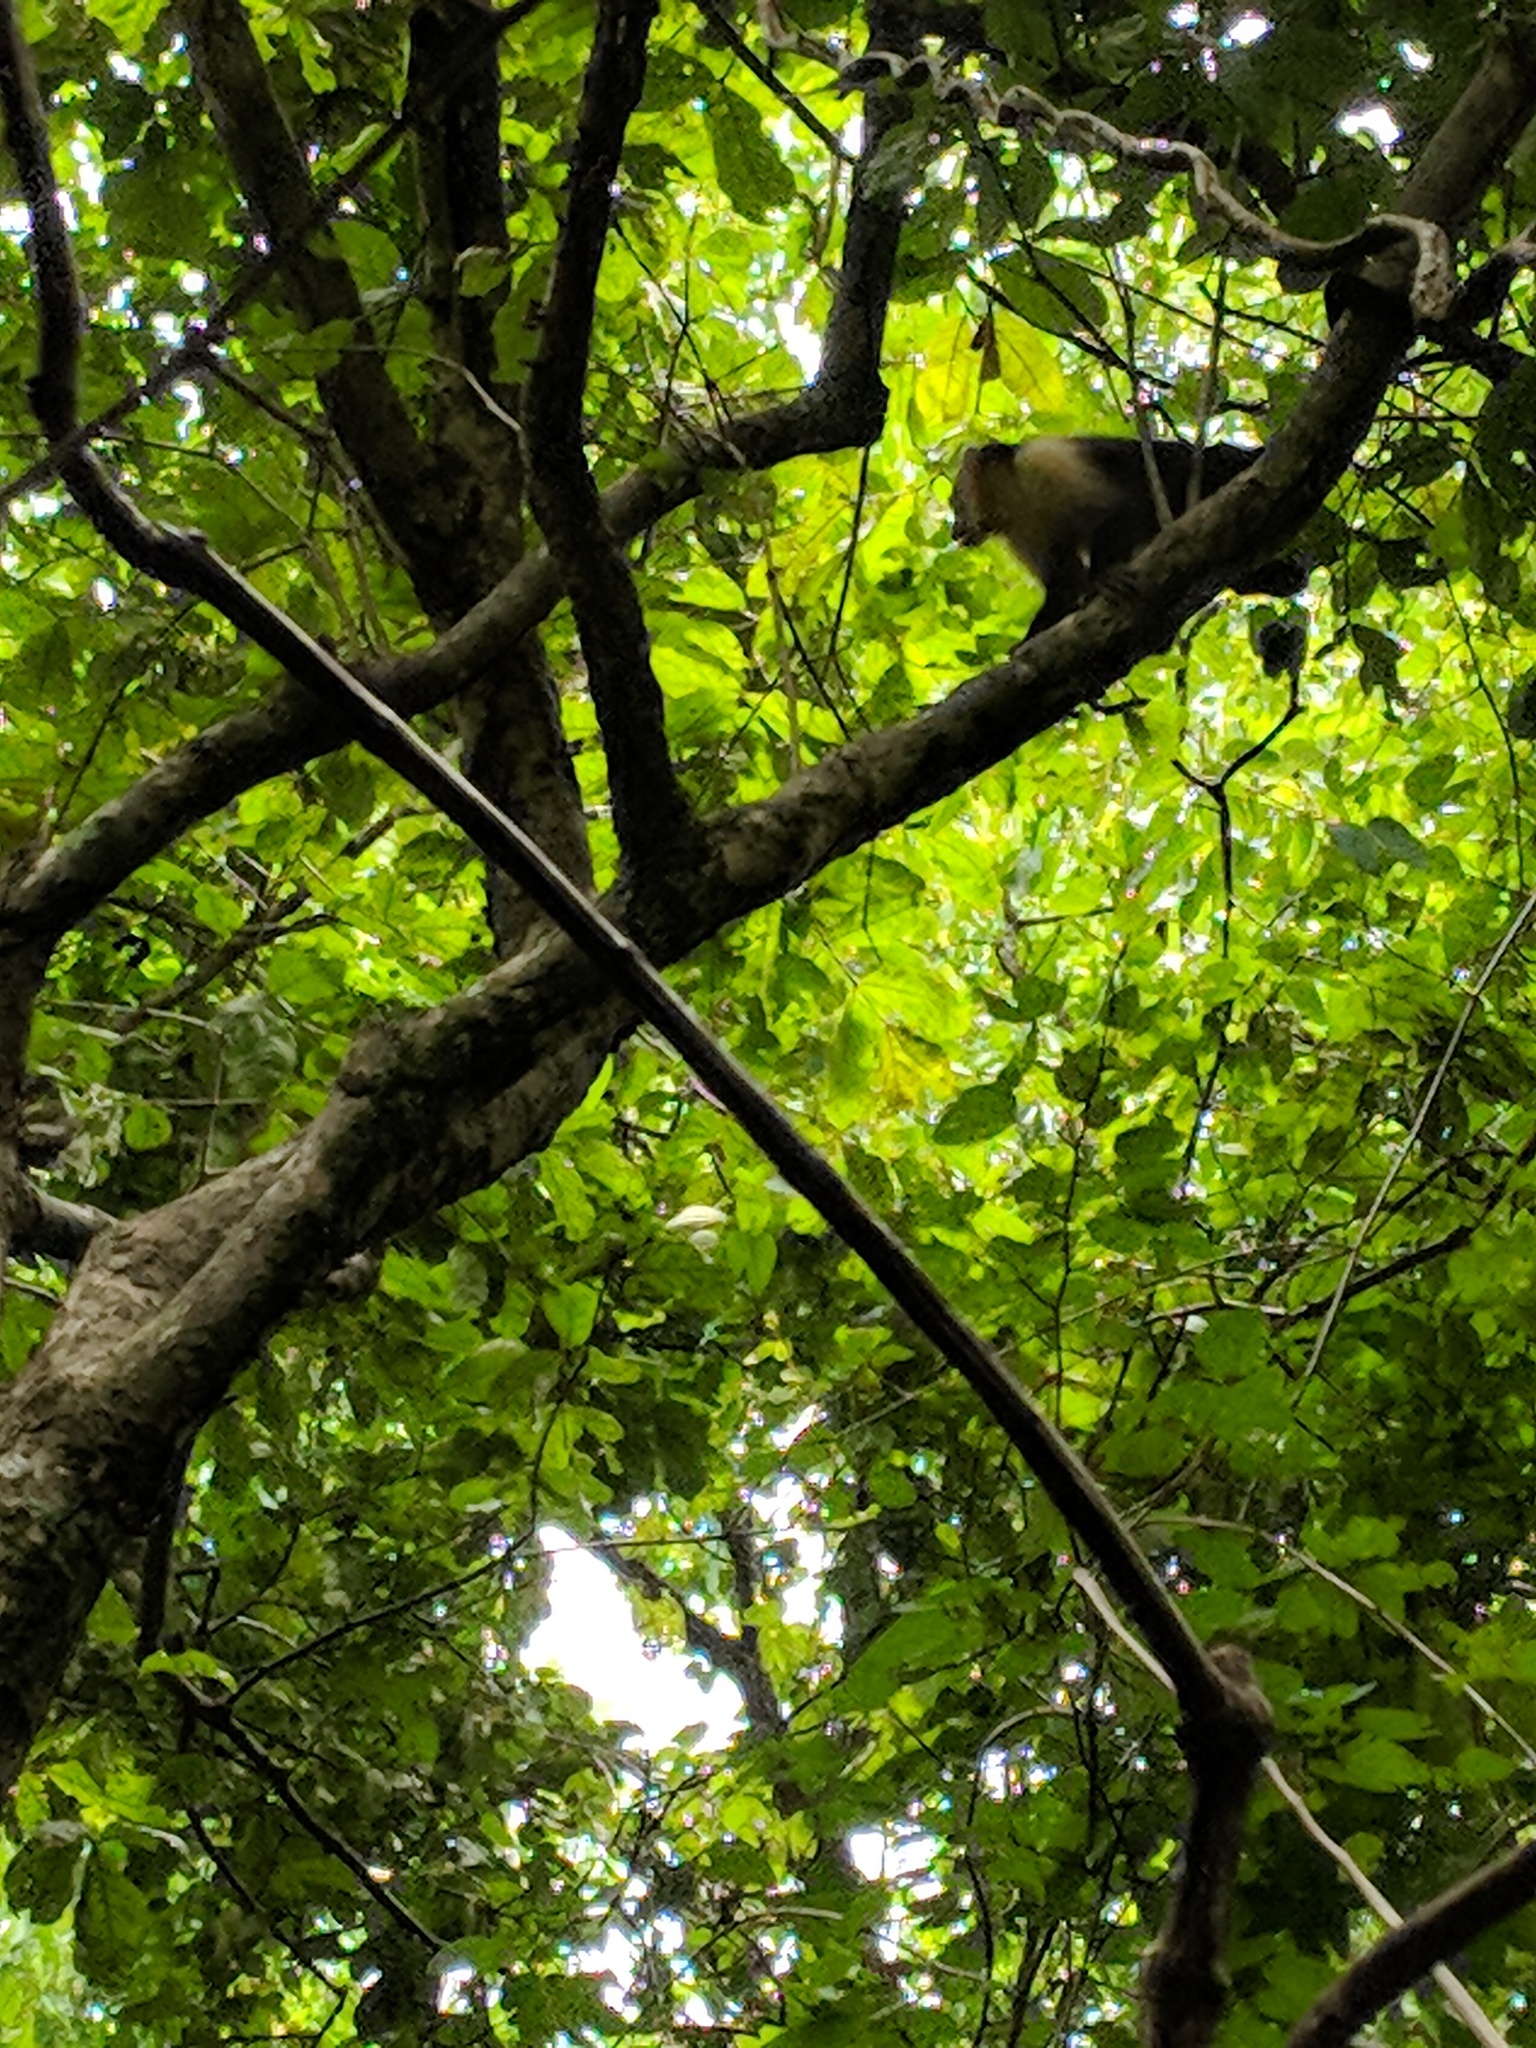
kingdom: Animalia
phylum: Chordata
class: Mammalia
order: Primates
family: Cebidae
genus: Cebus
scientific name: Cebus imitator
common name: Panamanian white-faced capuchin
